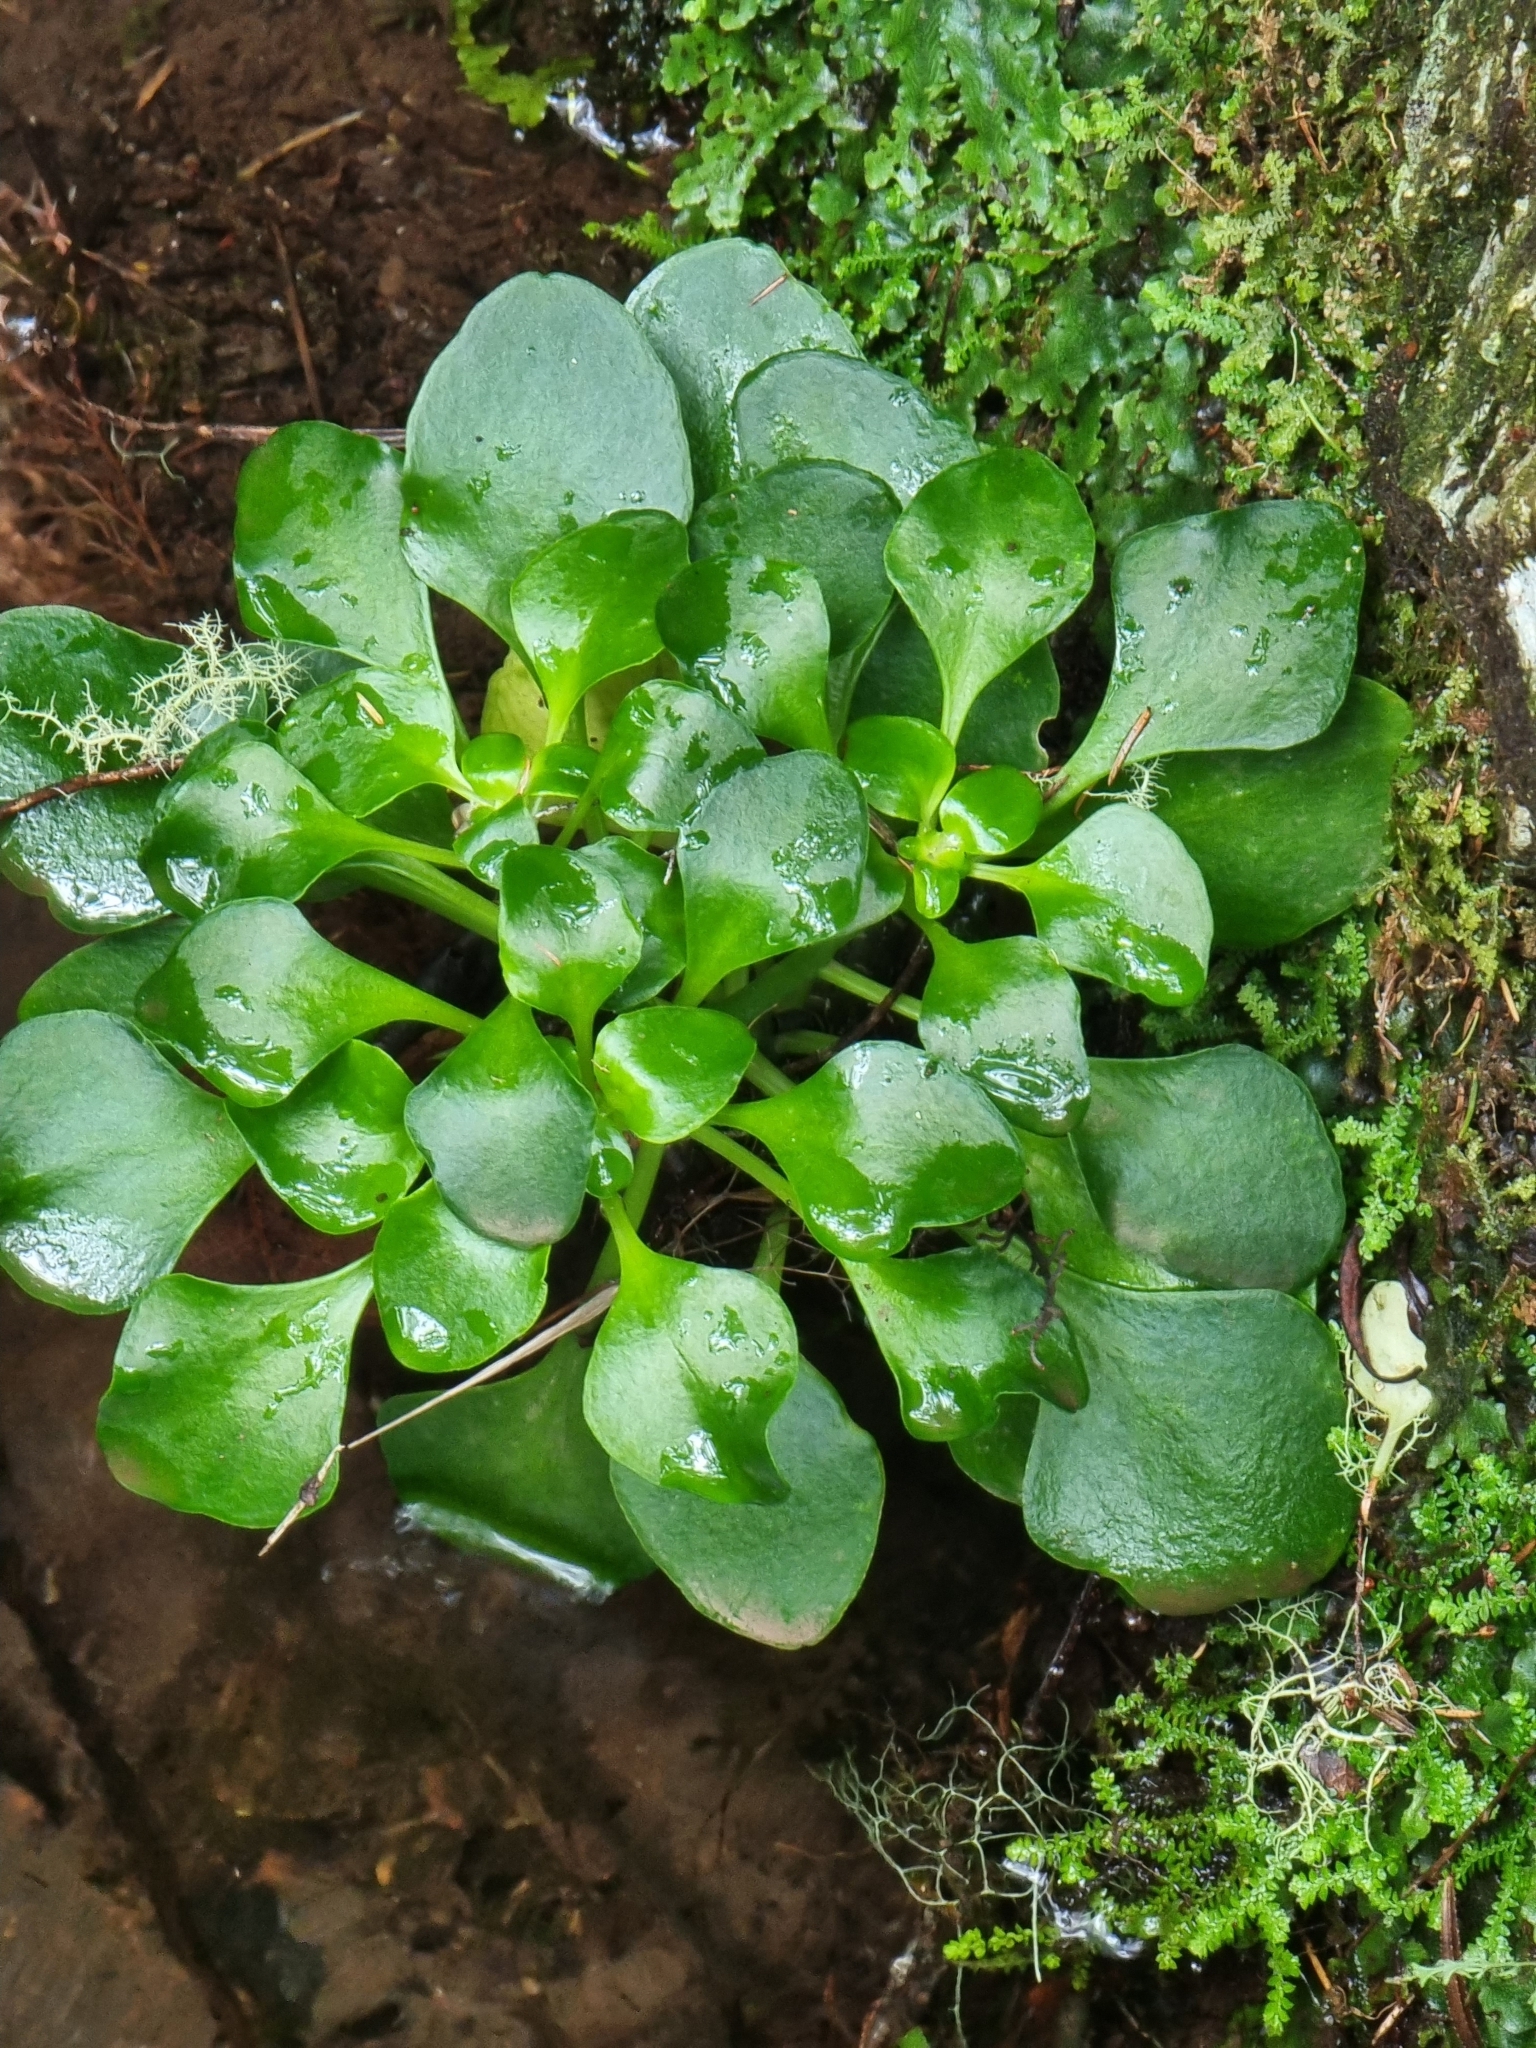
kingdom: Plantae
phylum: Tracheophyta
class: Magnoliopsida
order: Saxifragales
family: Crassulaceae
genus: Aichryson
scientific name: Aichryson divaricatum
